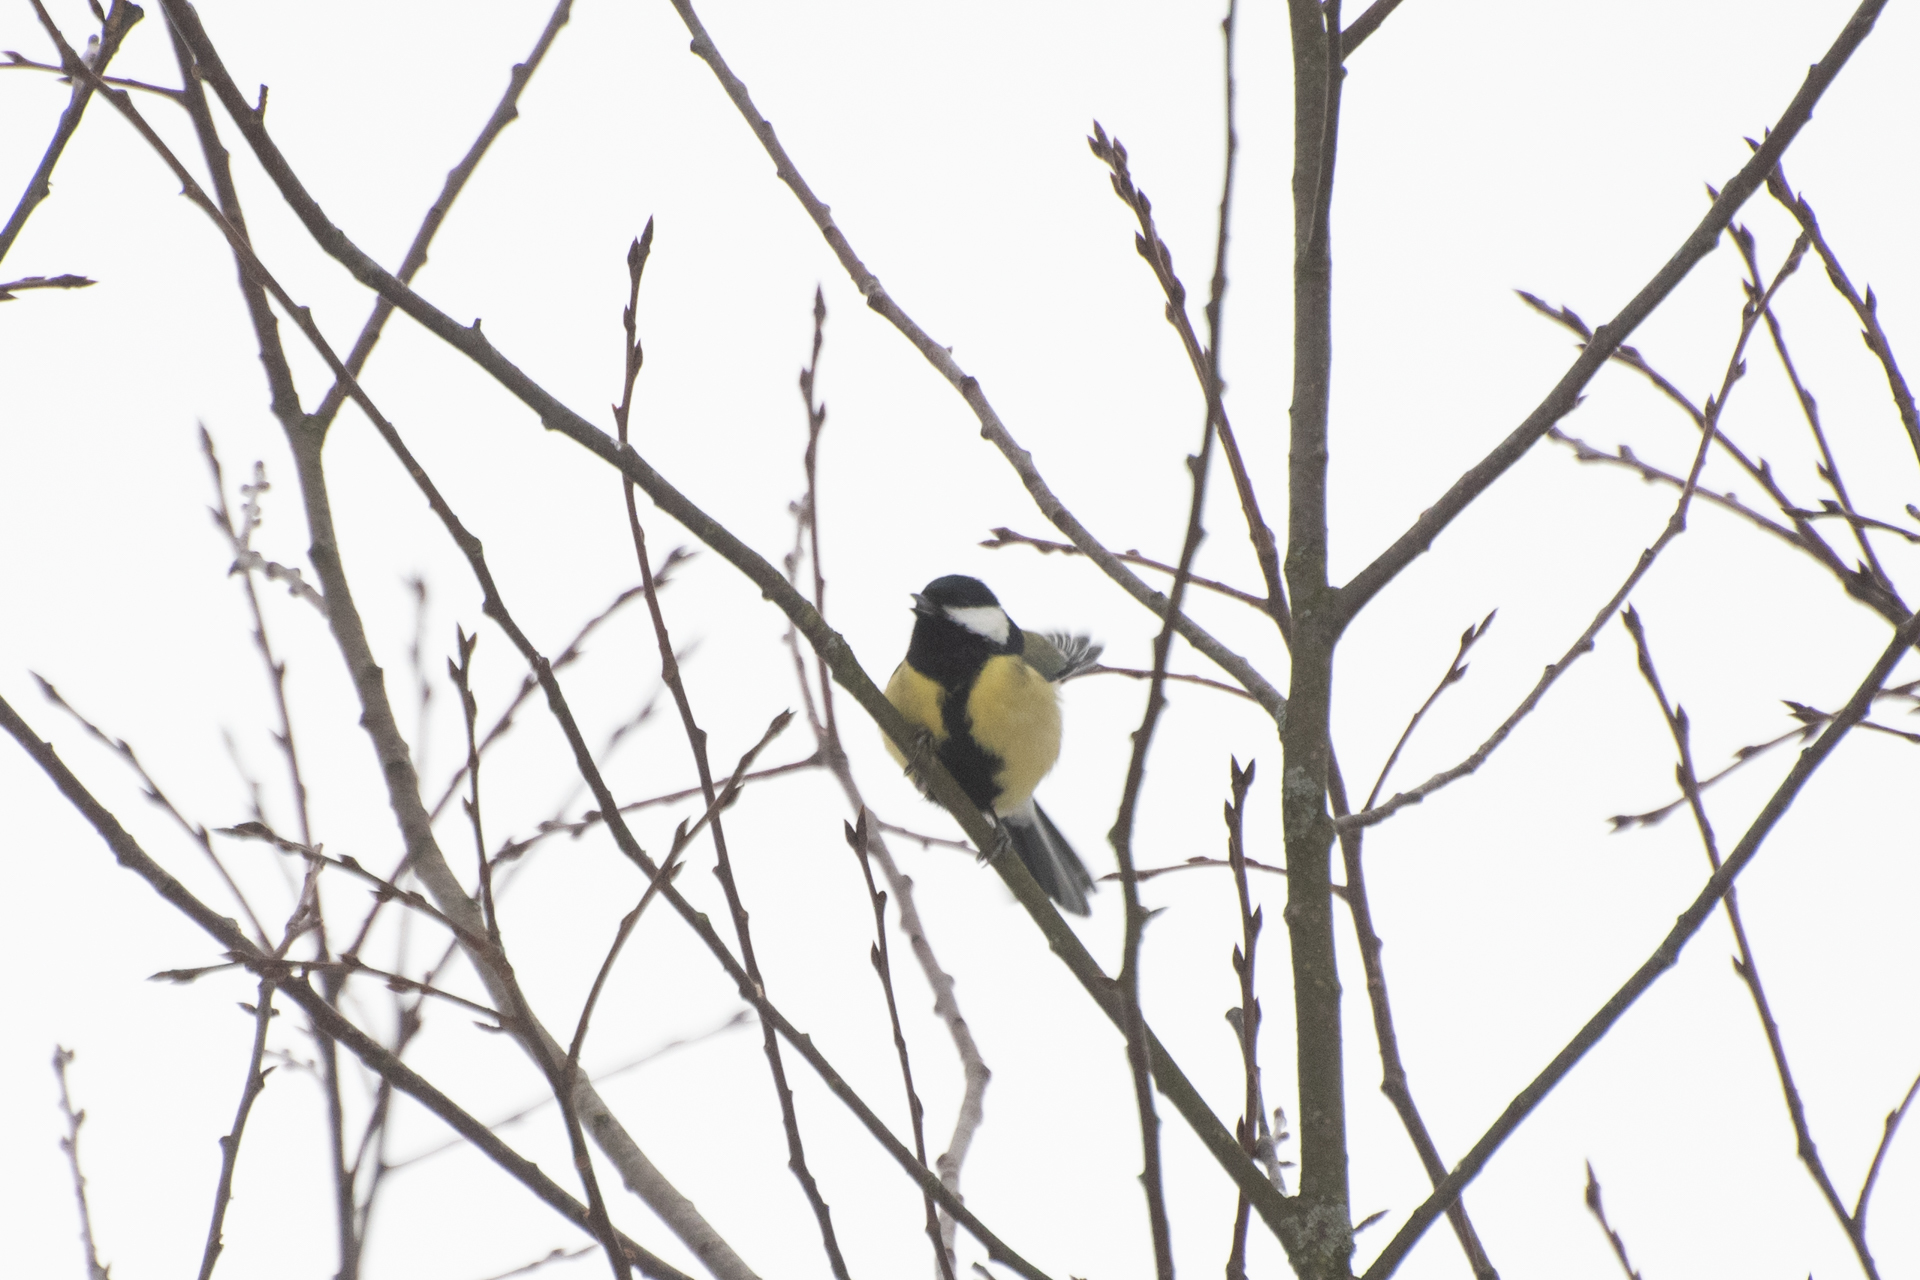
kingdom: Animalia
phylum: Chordata
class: Aves
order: Passeriformes
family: Paridae
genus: Parus
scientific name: Parus major
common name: Great tit
